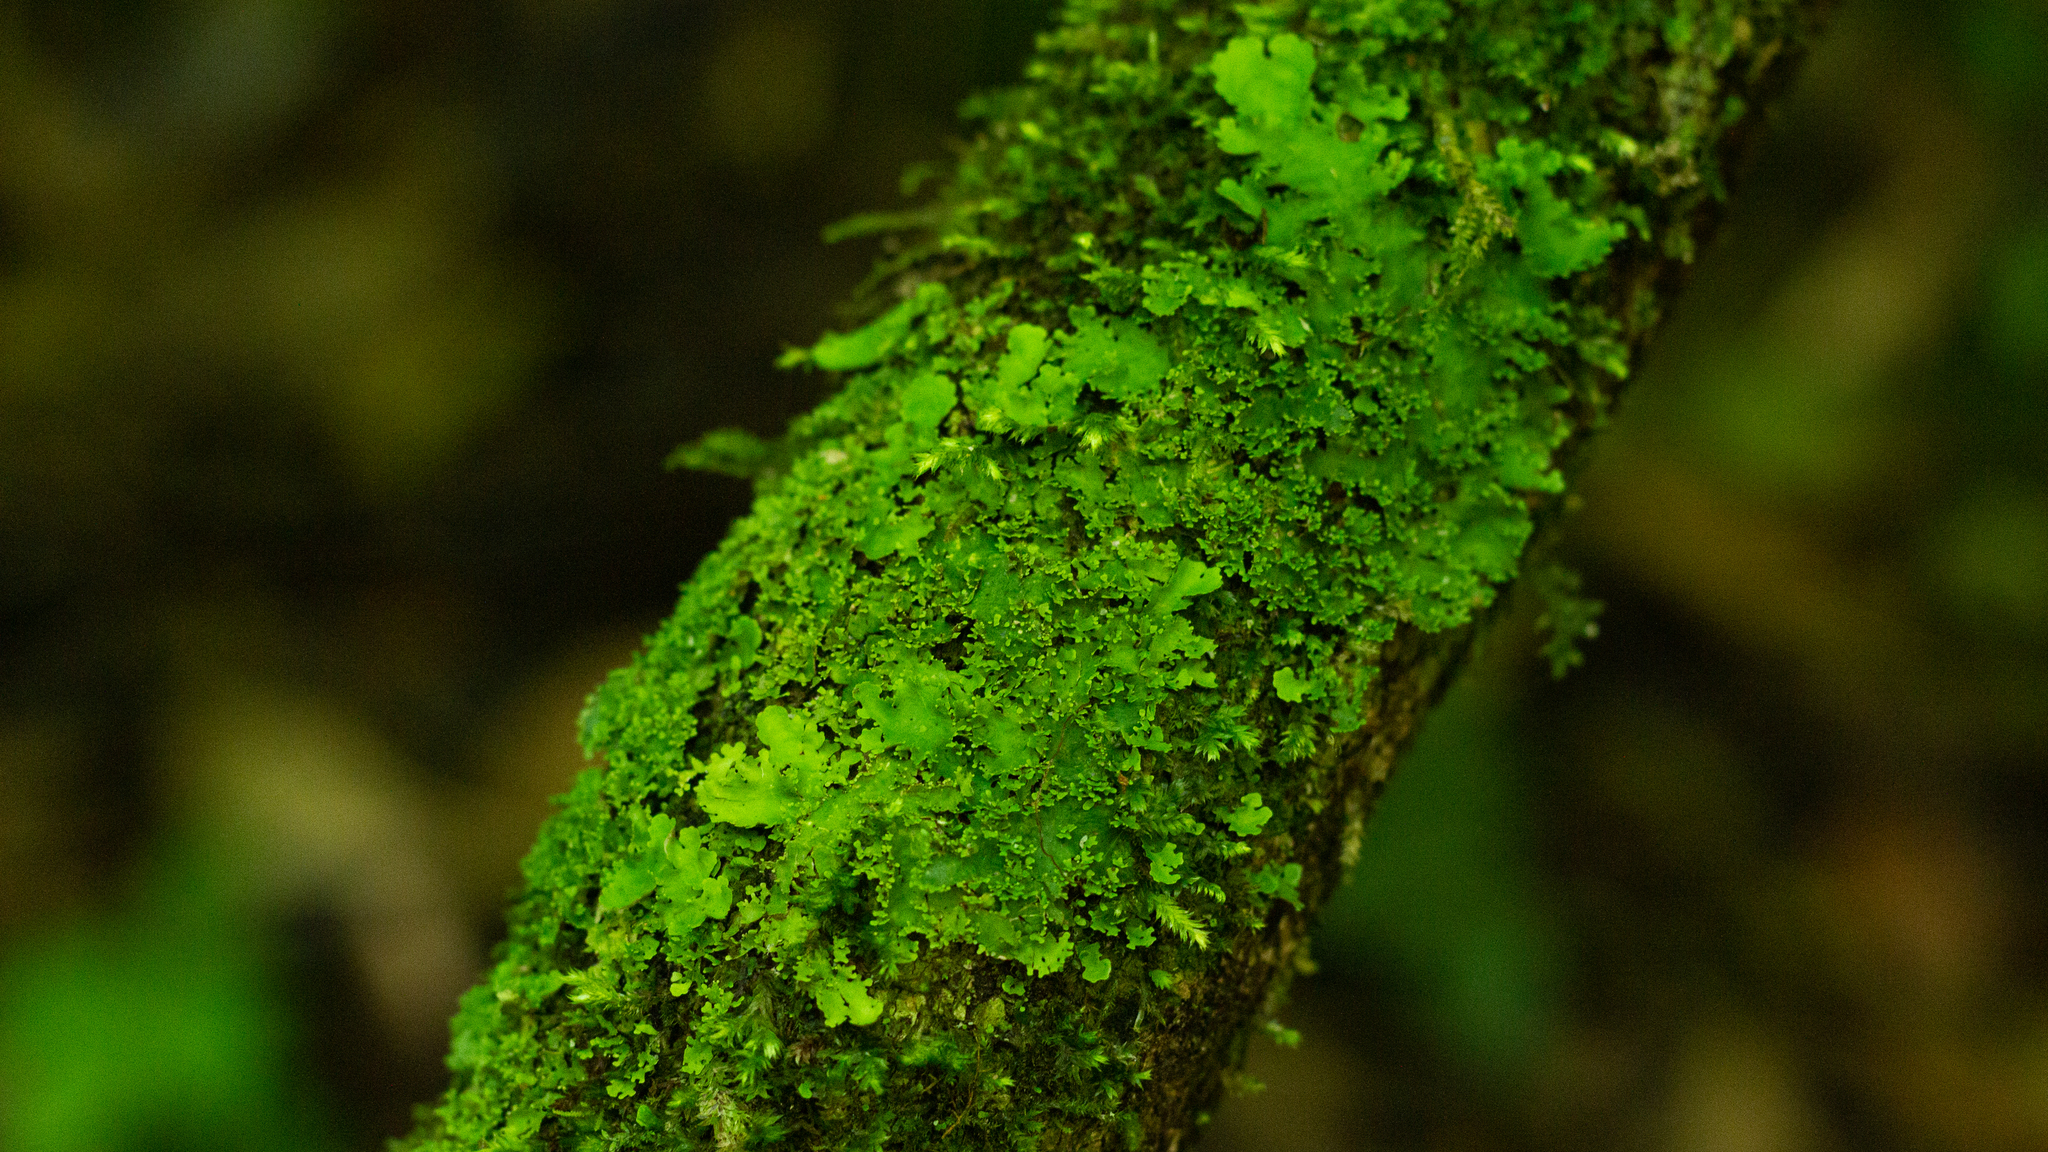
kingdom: Fungi
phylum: Ascomycota
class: Lecanoromycetes
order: Peltigerales
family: Peltigeraceae
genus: Emmanuelia
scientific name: Emmanuelia tenuis
